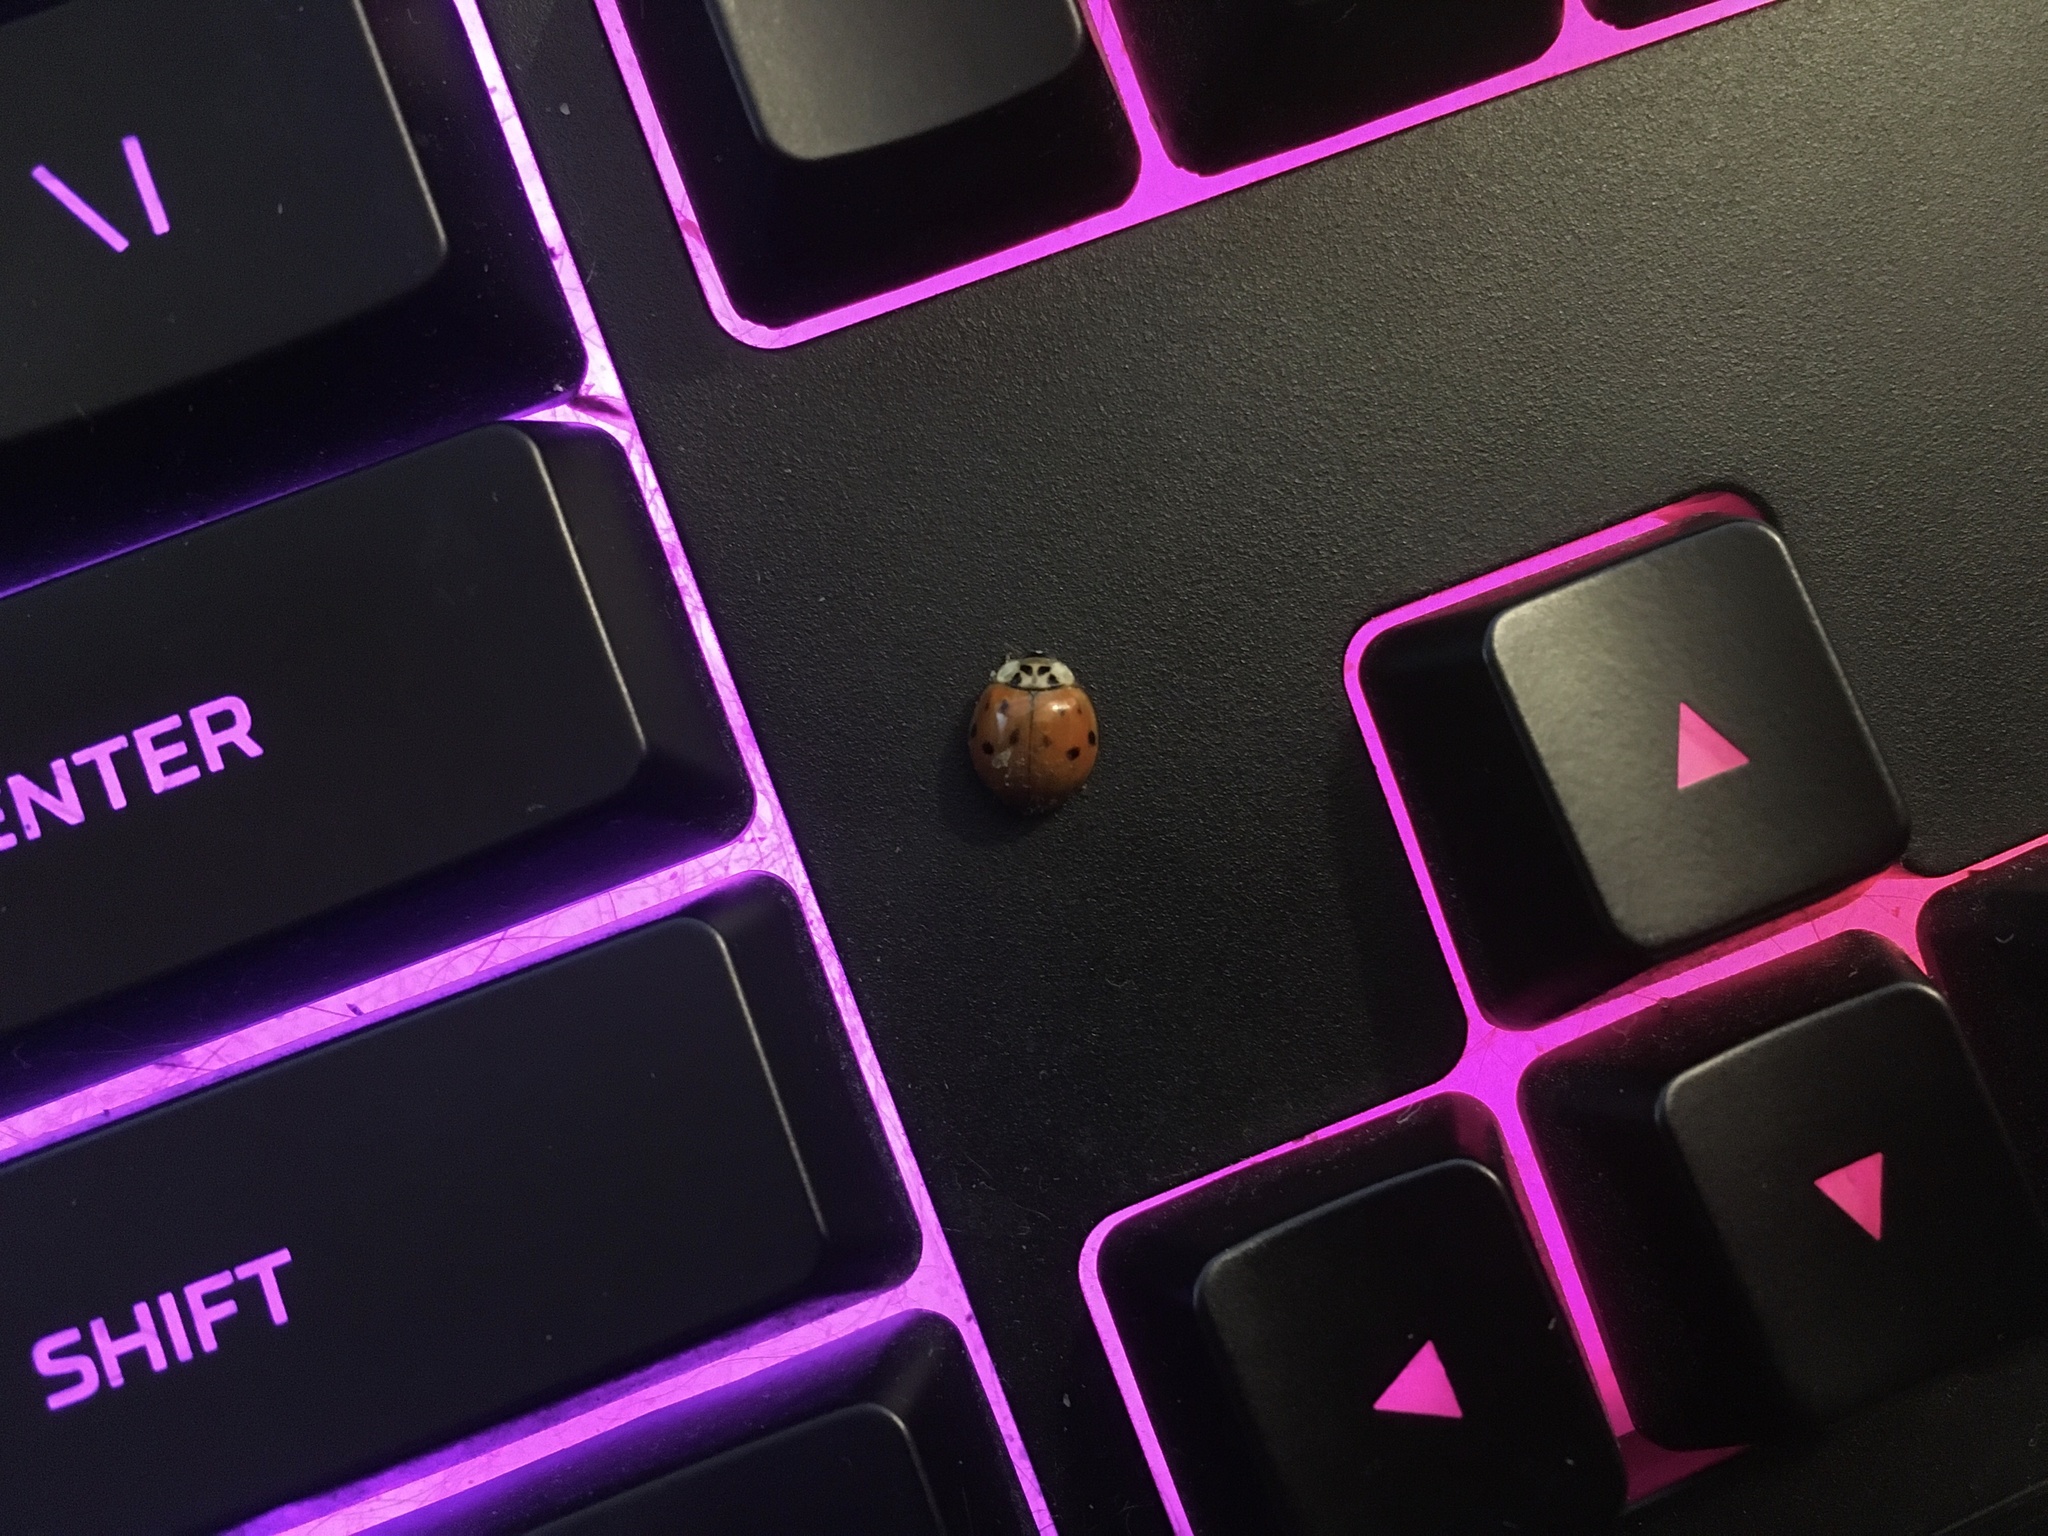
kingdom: Animalia
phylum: Arthropoda
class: Insecta
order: Coleoptera
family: Coccinellidae
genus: Harmonia
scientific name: Harmonia axyridis
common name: Harlequin ladybird
